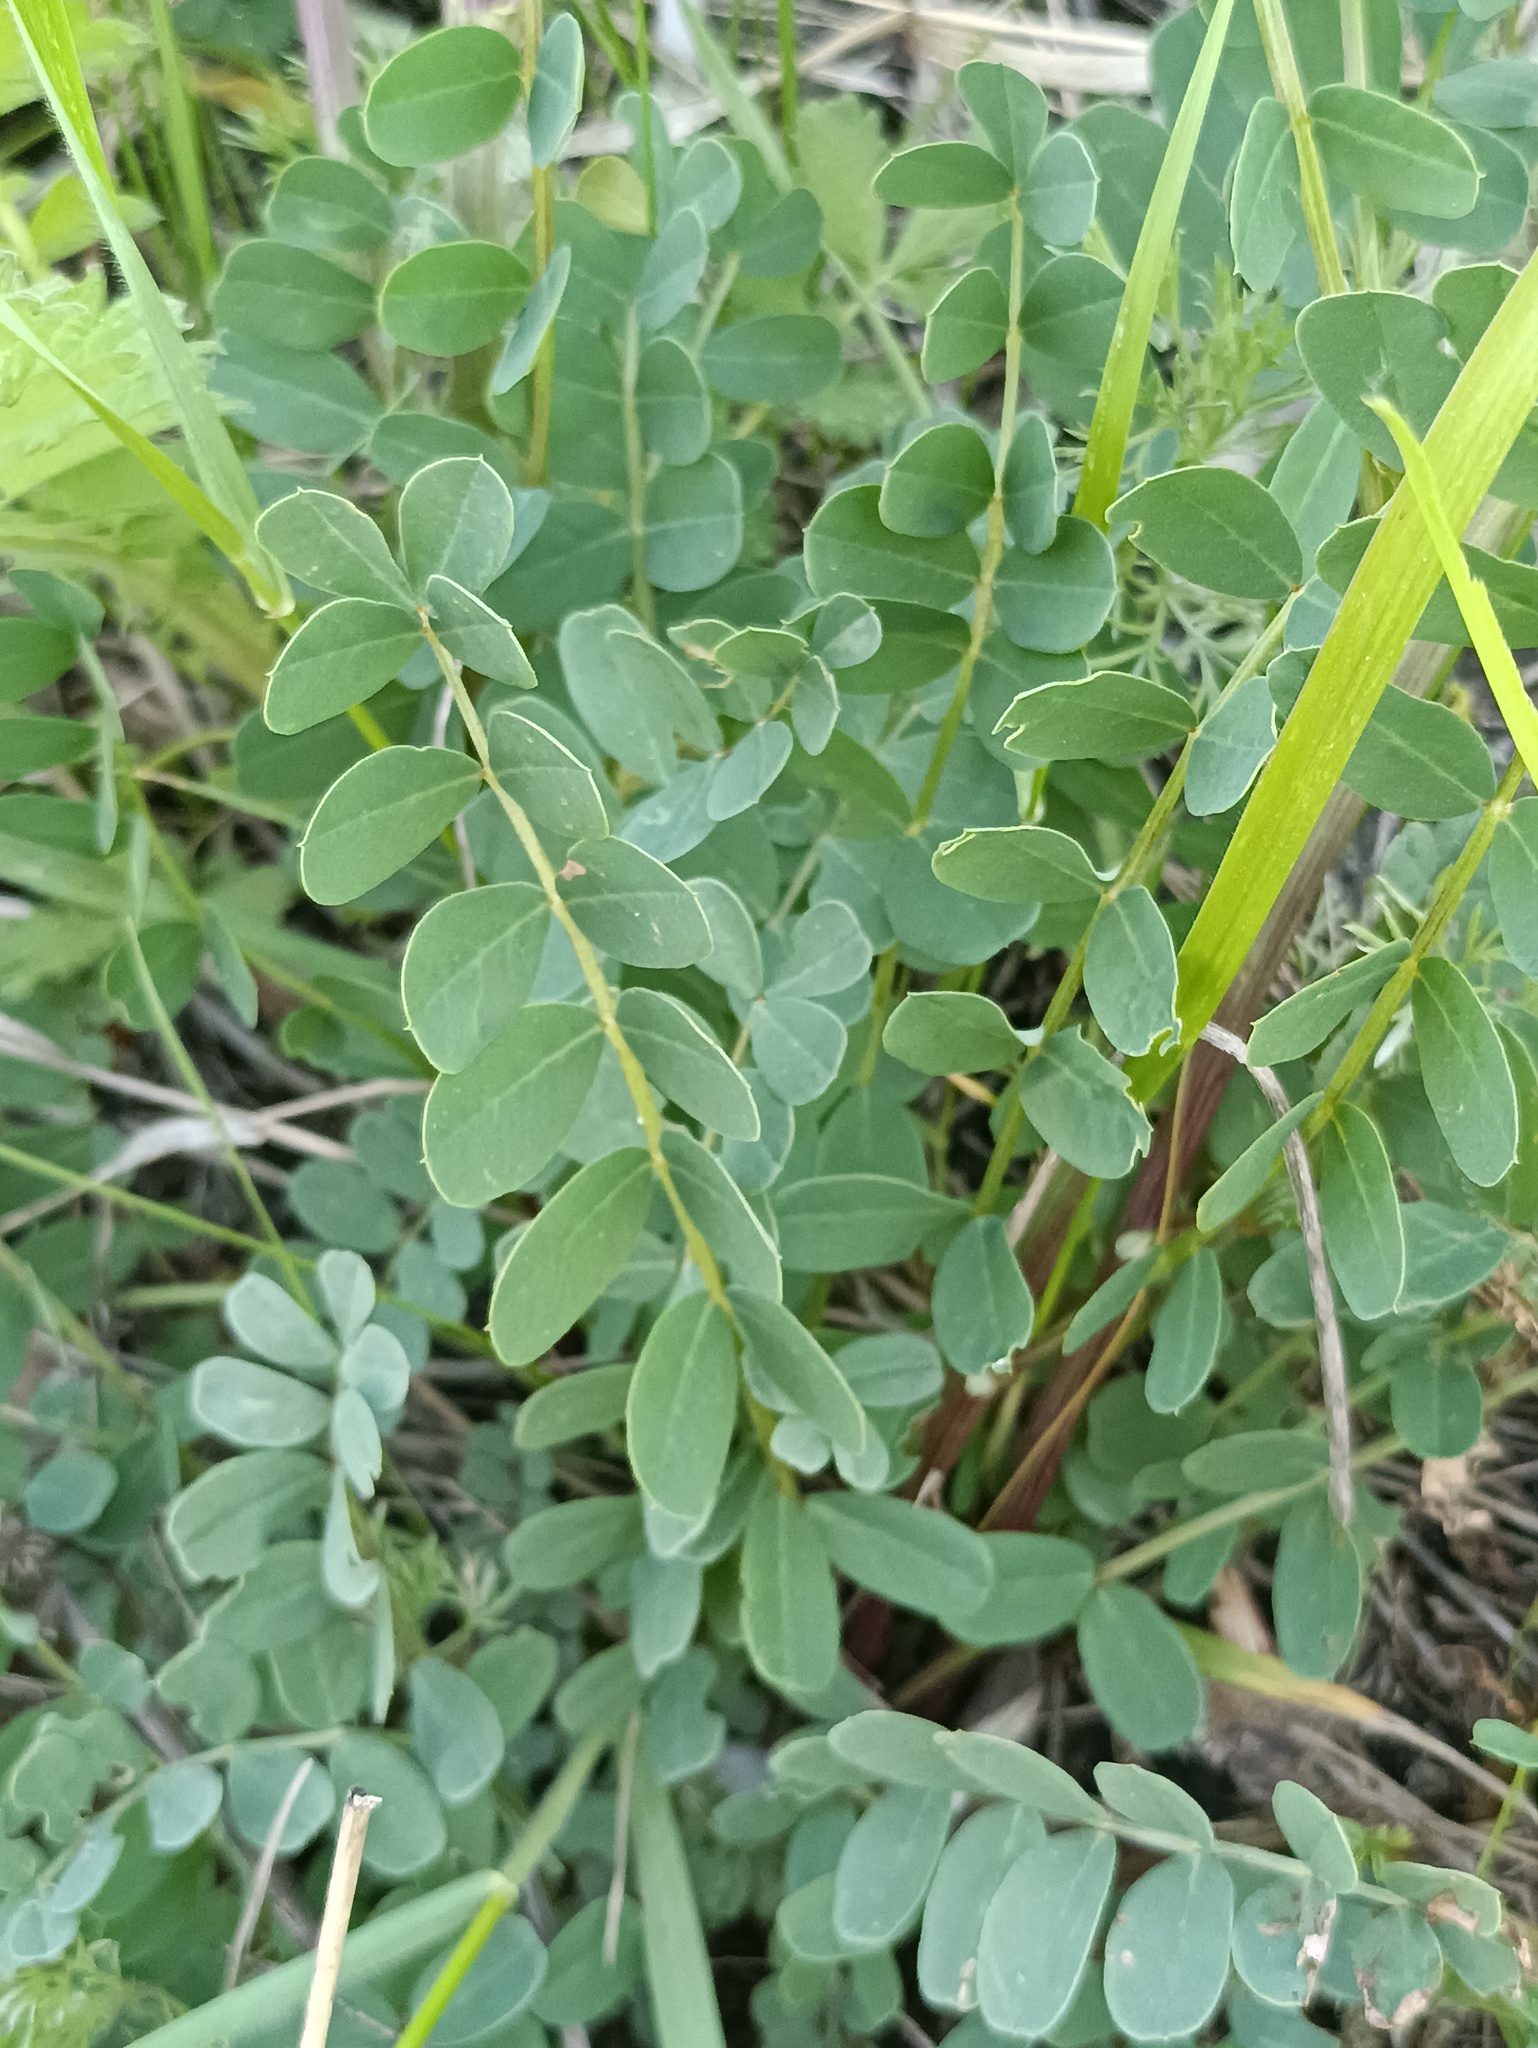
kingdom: Plantae
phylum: Tracheophyta
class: Magnoliopsida
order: Fabales
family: Fabaceae
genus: Coronilla
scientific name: Coronilla varia
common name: Crownvetch
